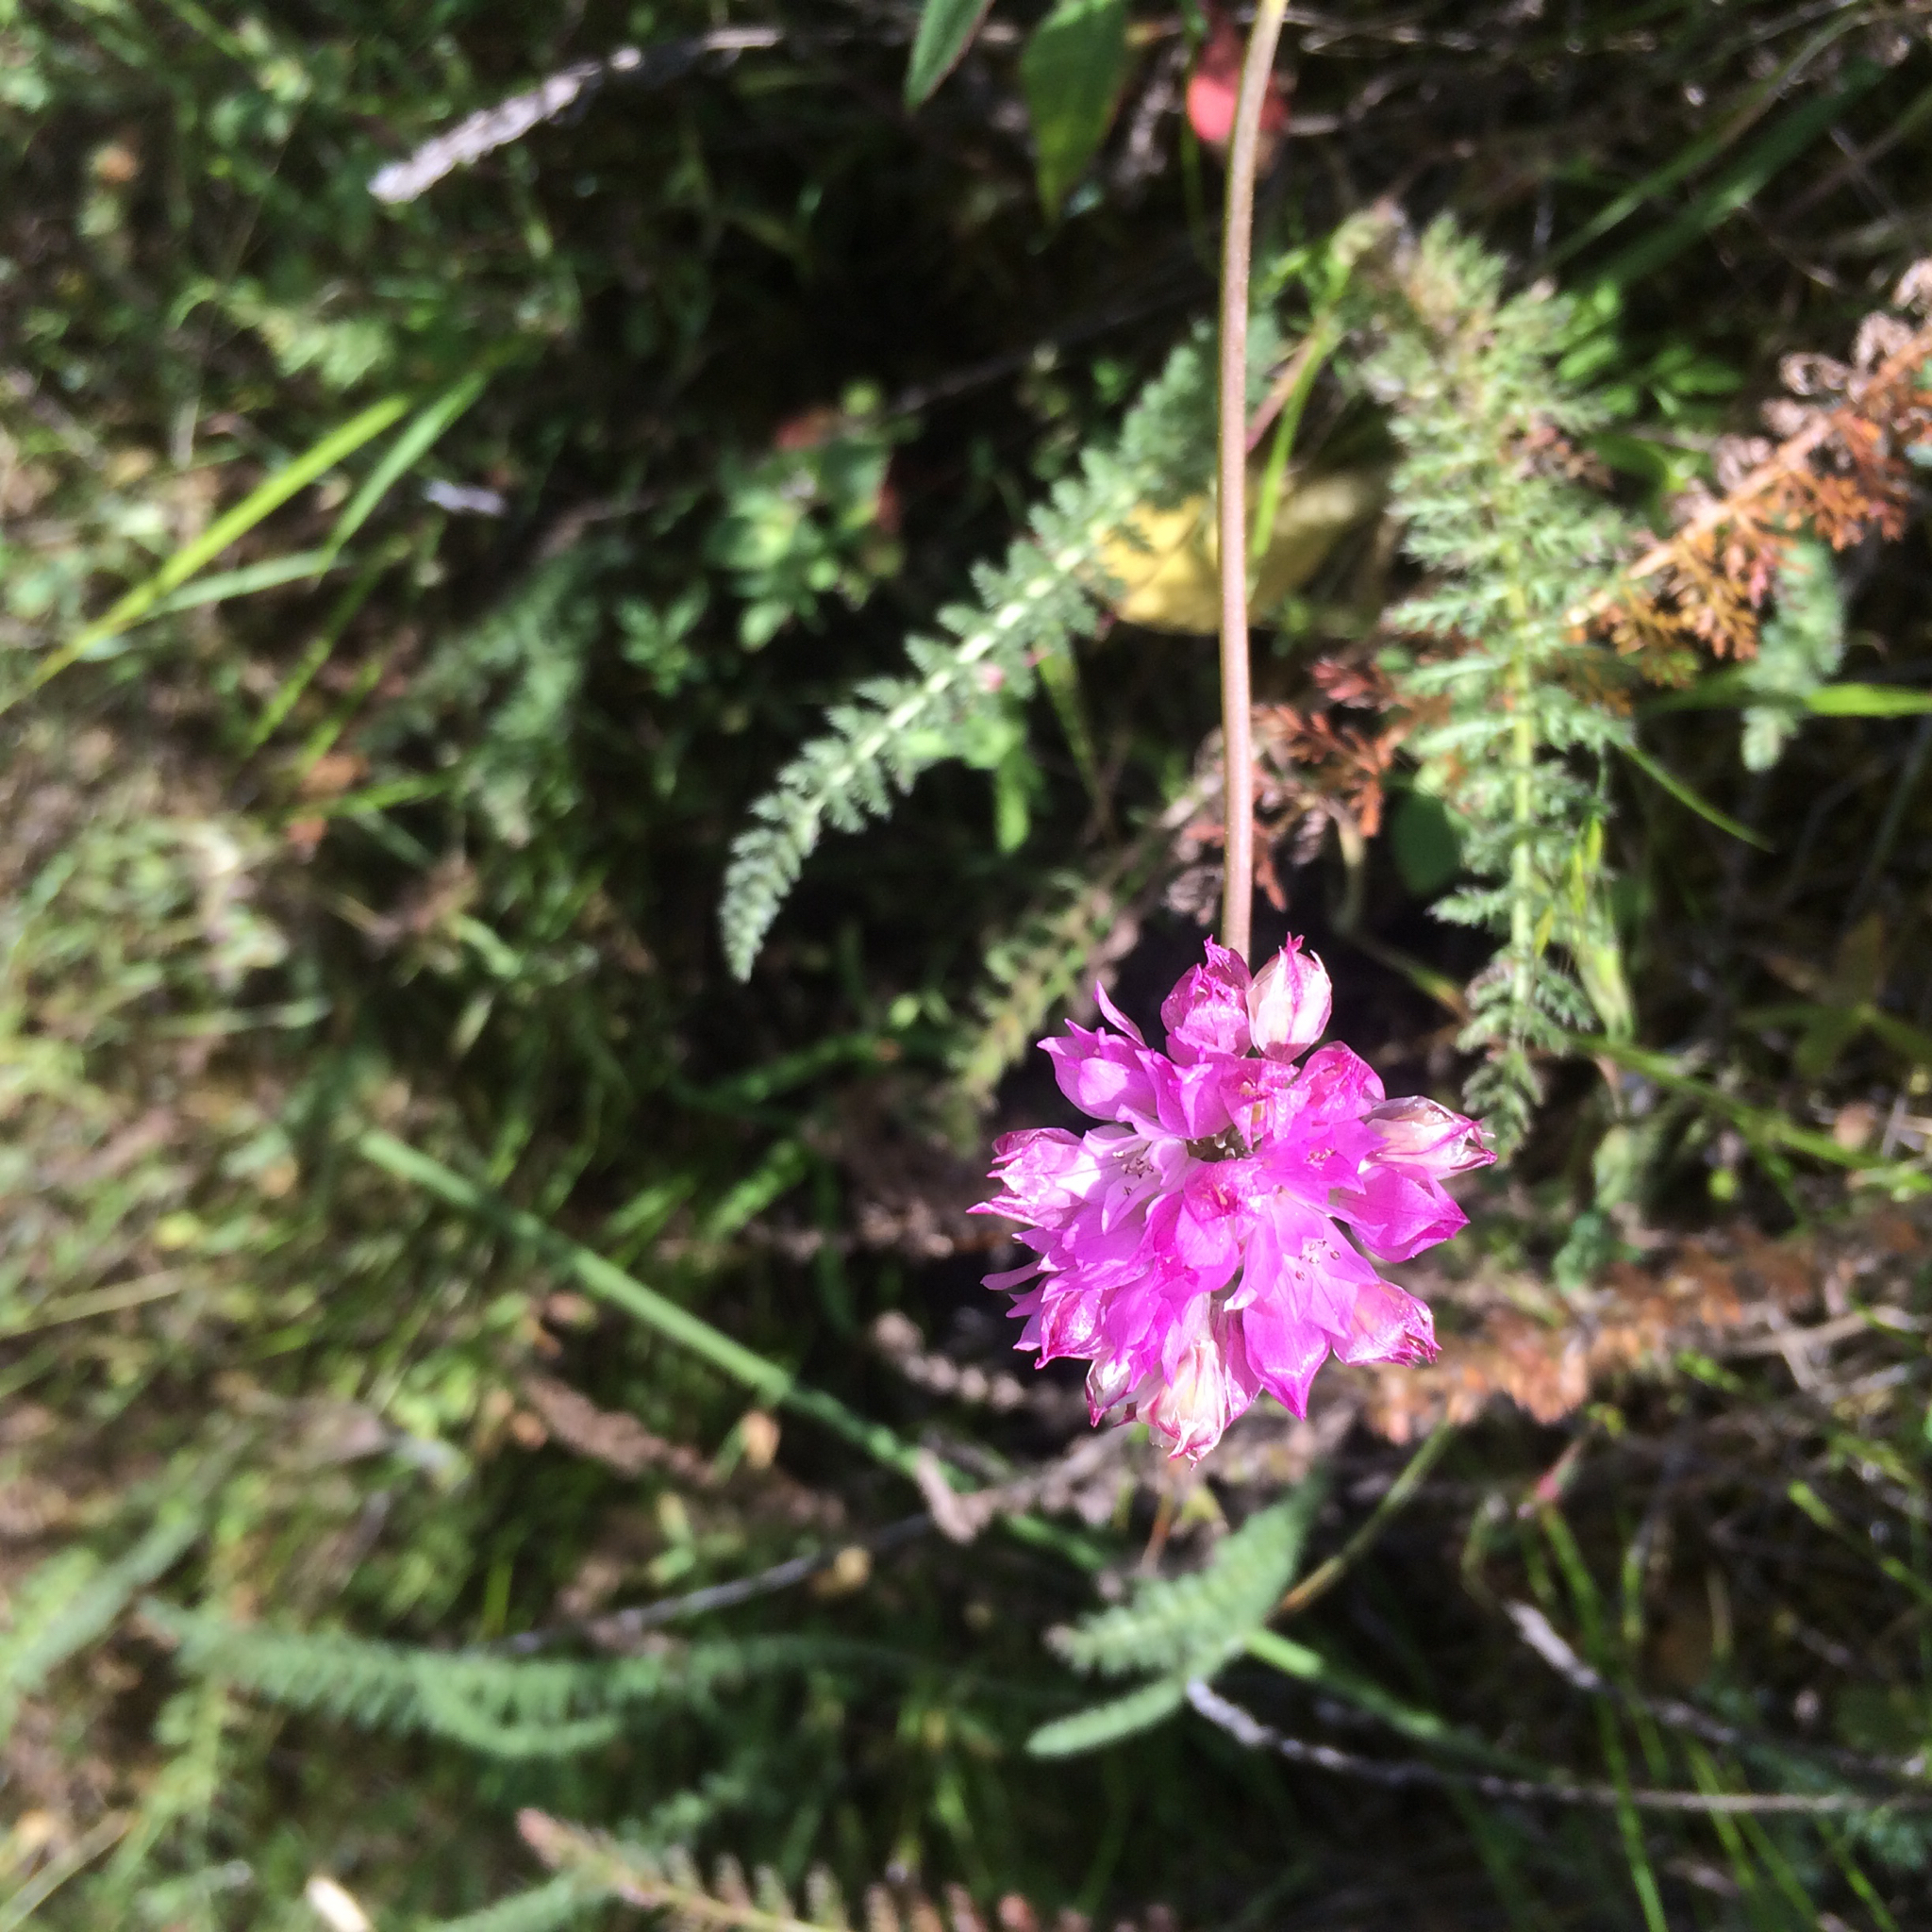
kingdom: Plantae
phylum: Tracheophyta
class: Liliopsida
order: Asparagales
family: Amaryllidaceae
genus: Allium
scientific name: Allium serra
